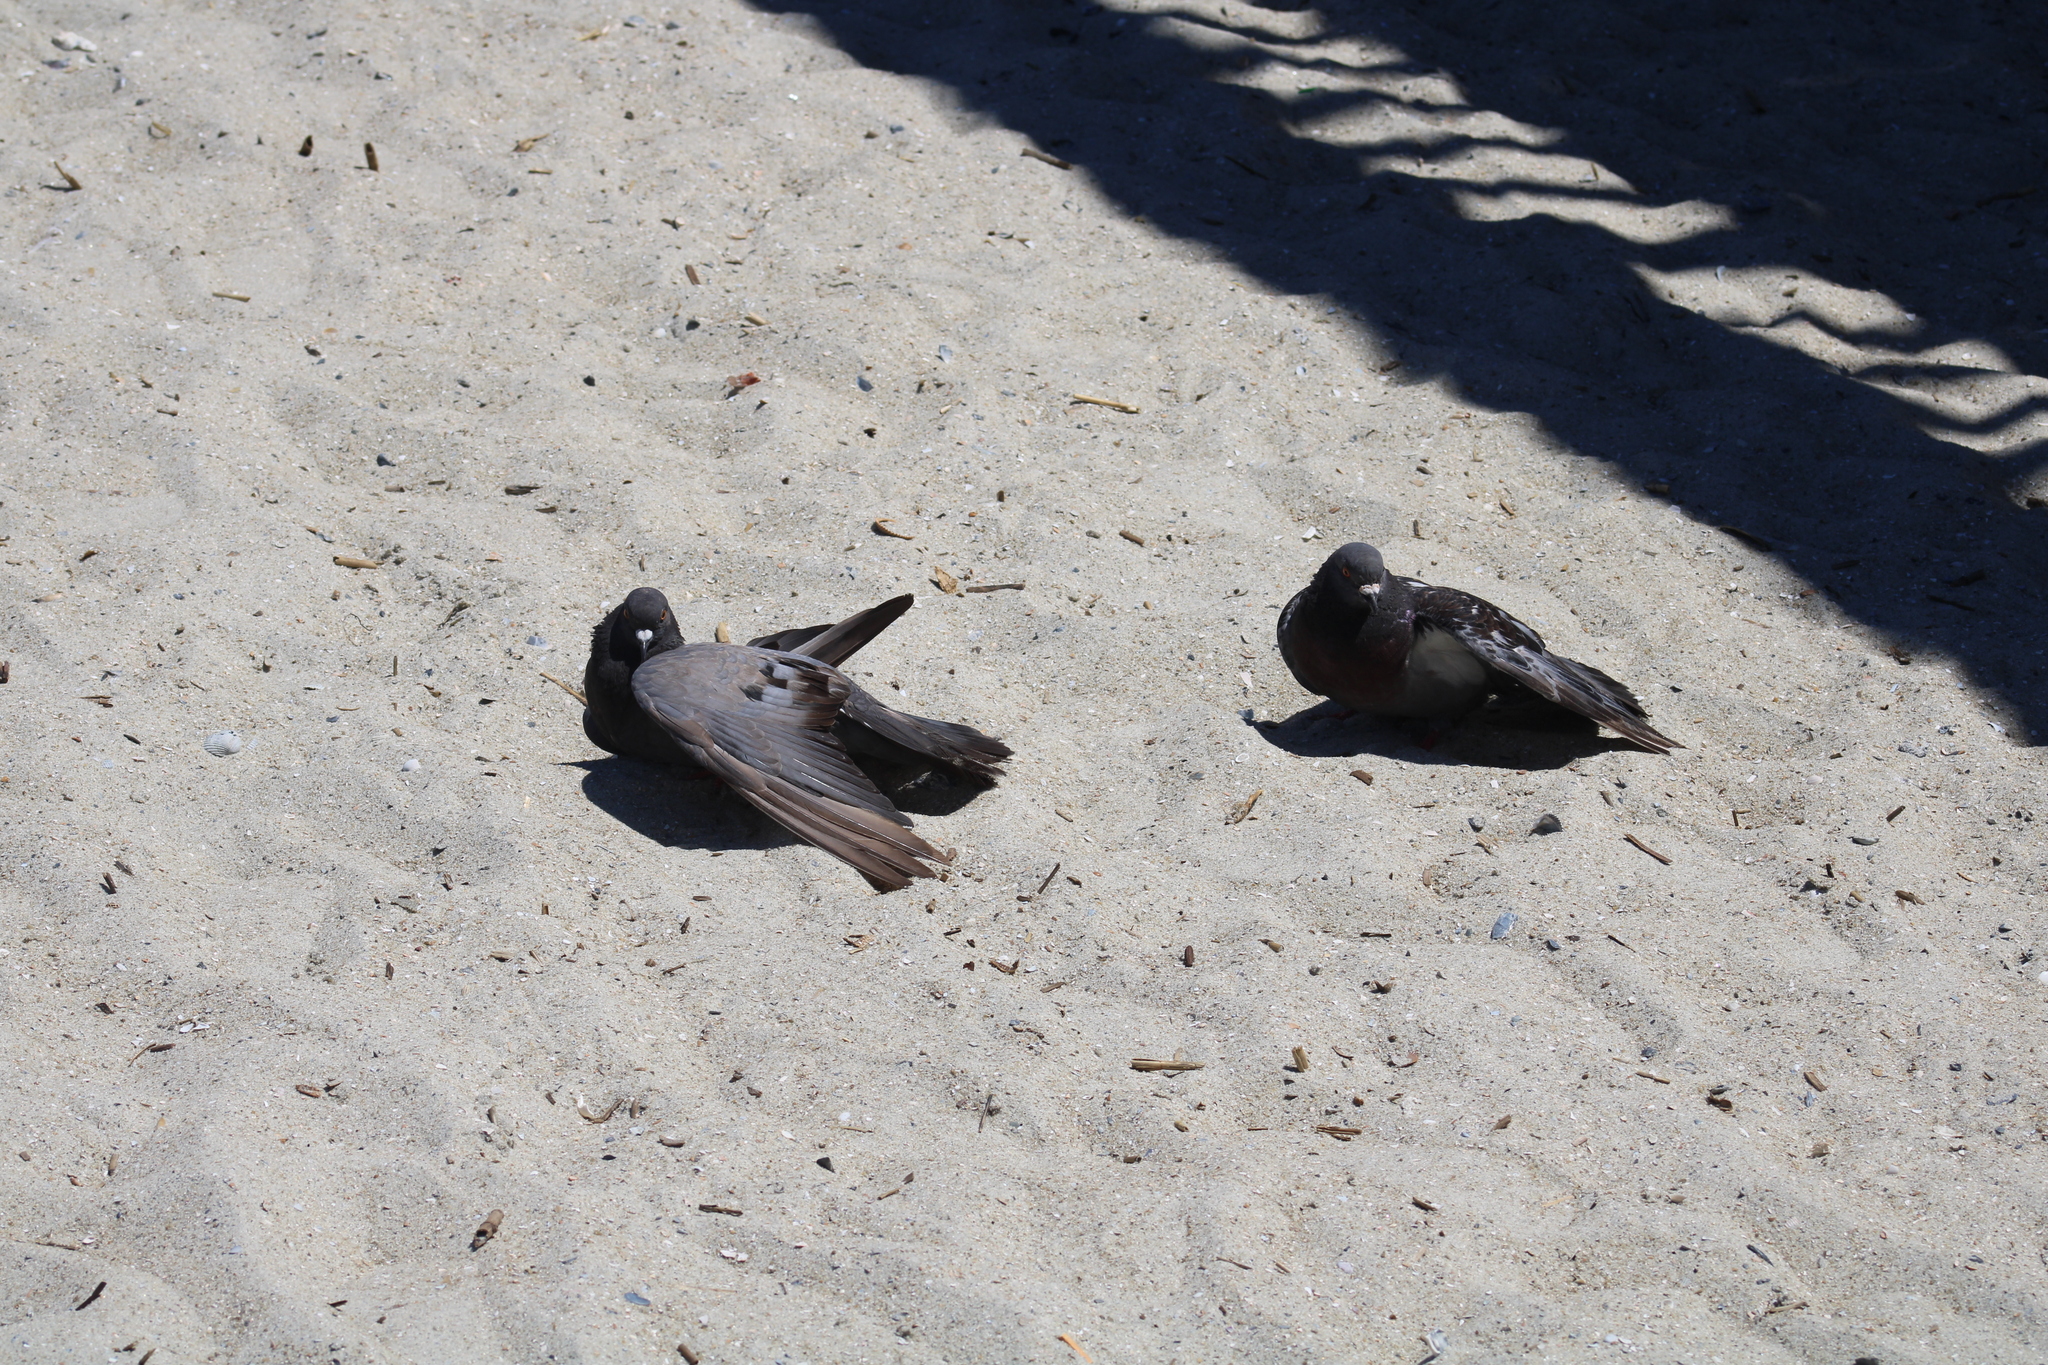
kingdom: Animalia
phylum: Chordata
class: Aves
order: Columbiformes
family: Columbidae
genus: Columba
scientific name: Columba livia
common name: Rock pigeon
